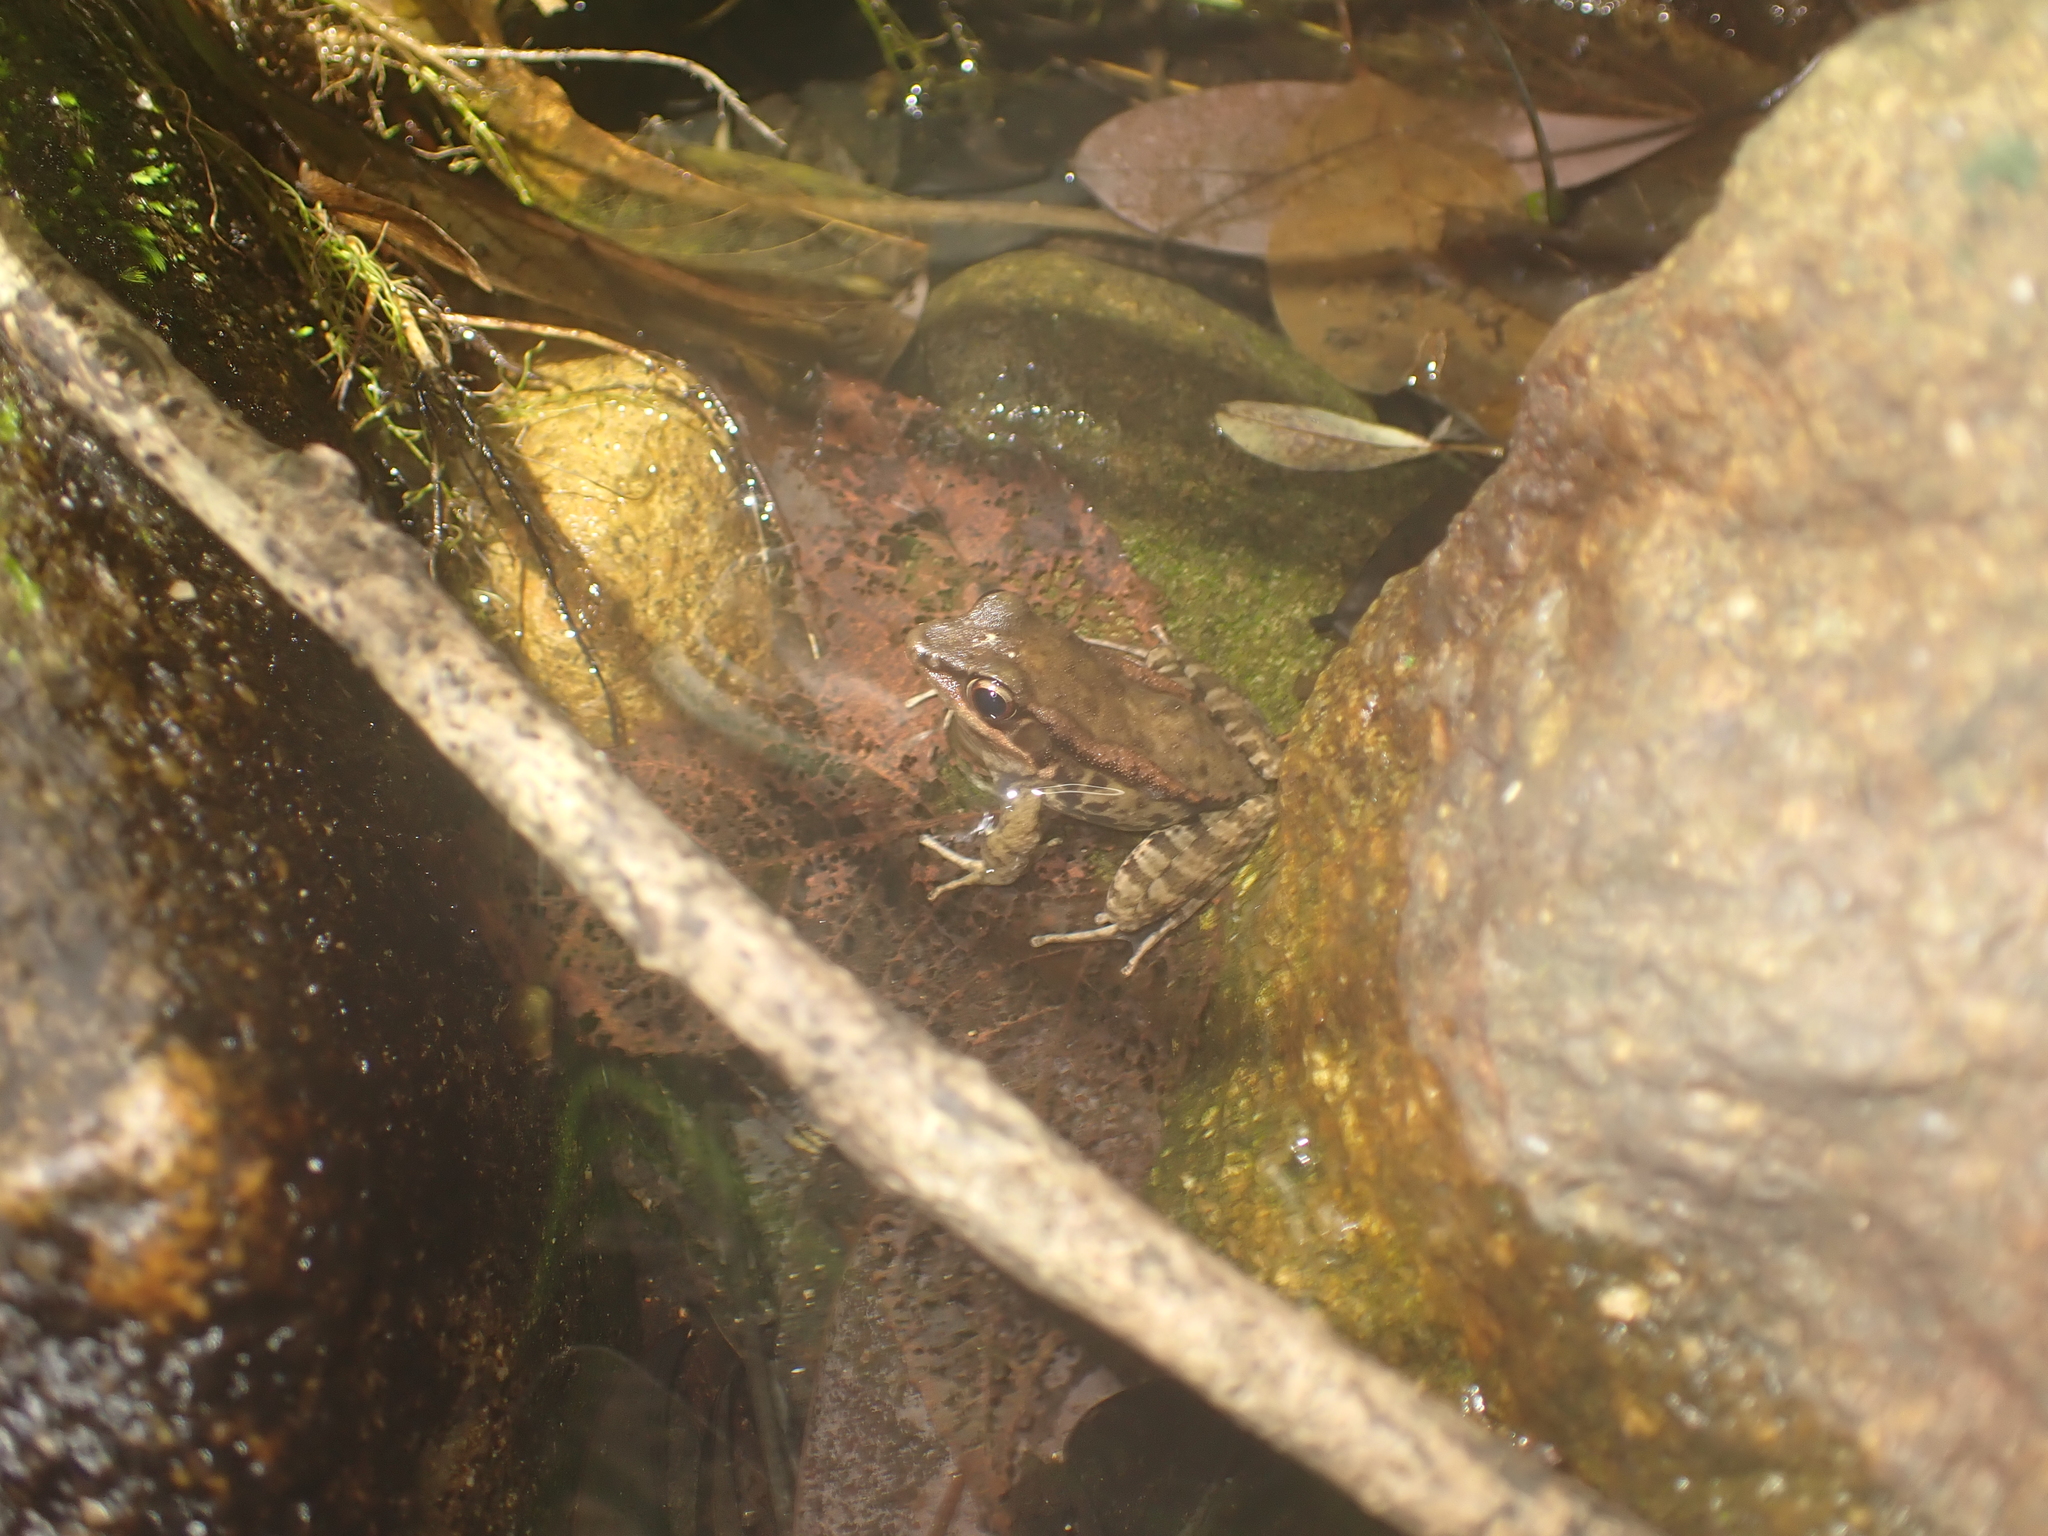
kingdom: Animalia
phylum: Chordata
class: Amphibia
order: Anura
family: Ranidae
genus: Hylarana
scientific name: Hylarana latouchii
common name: Broad-folded frog
